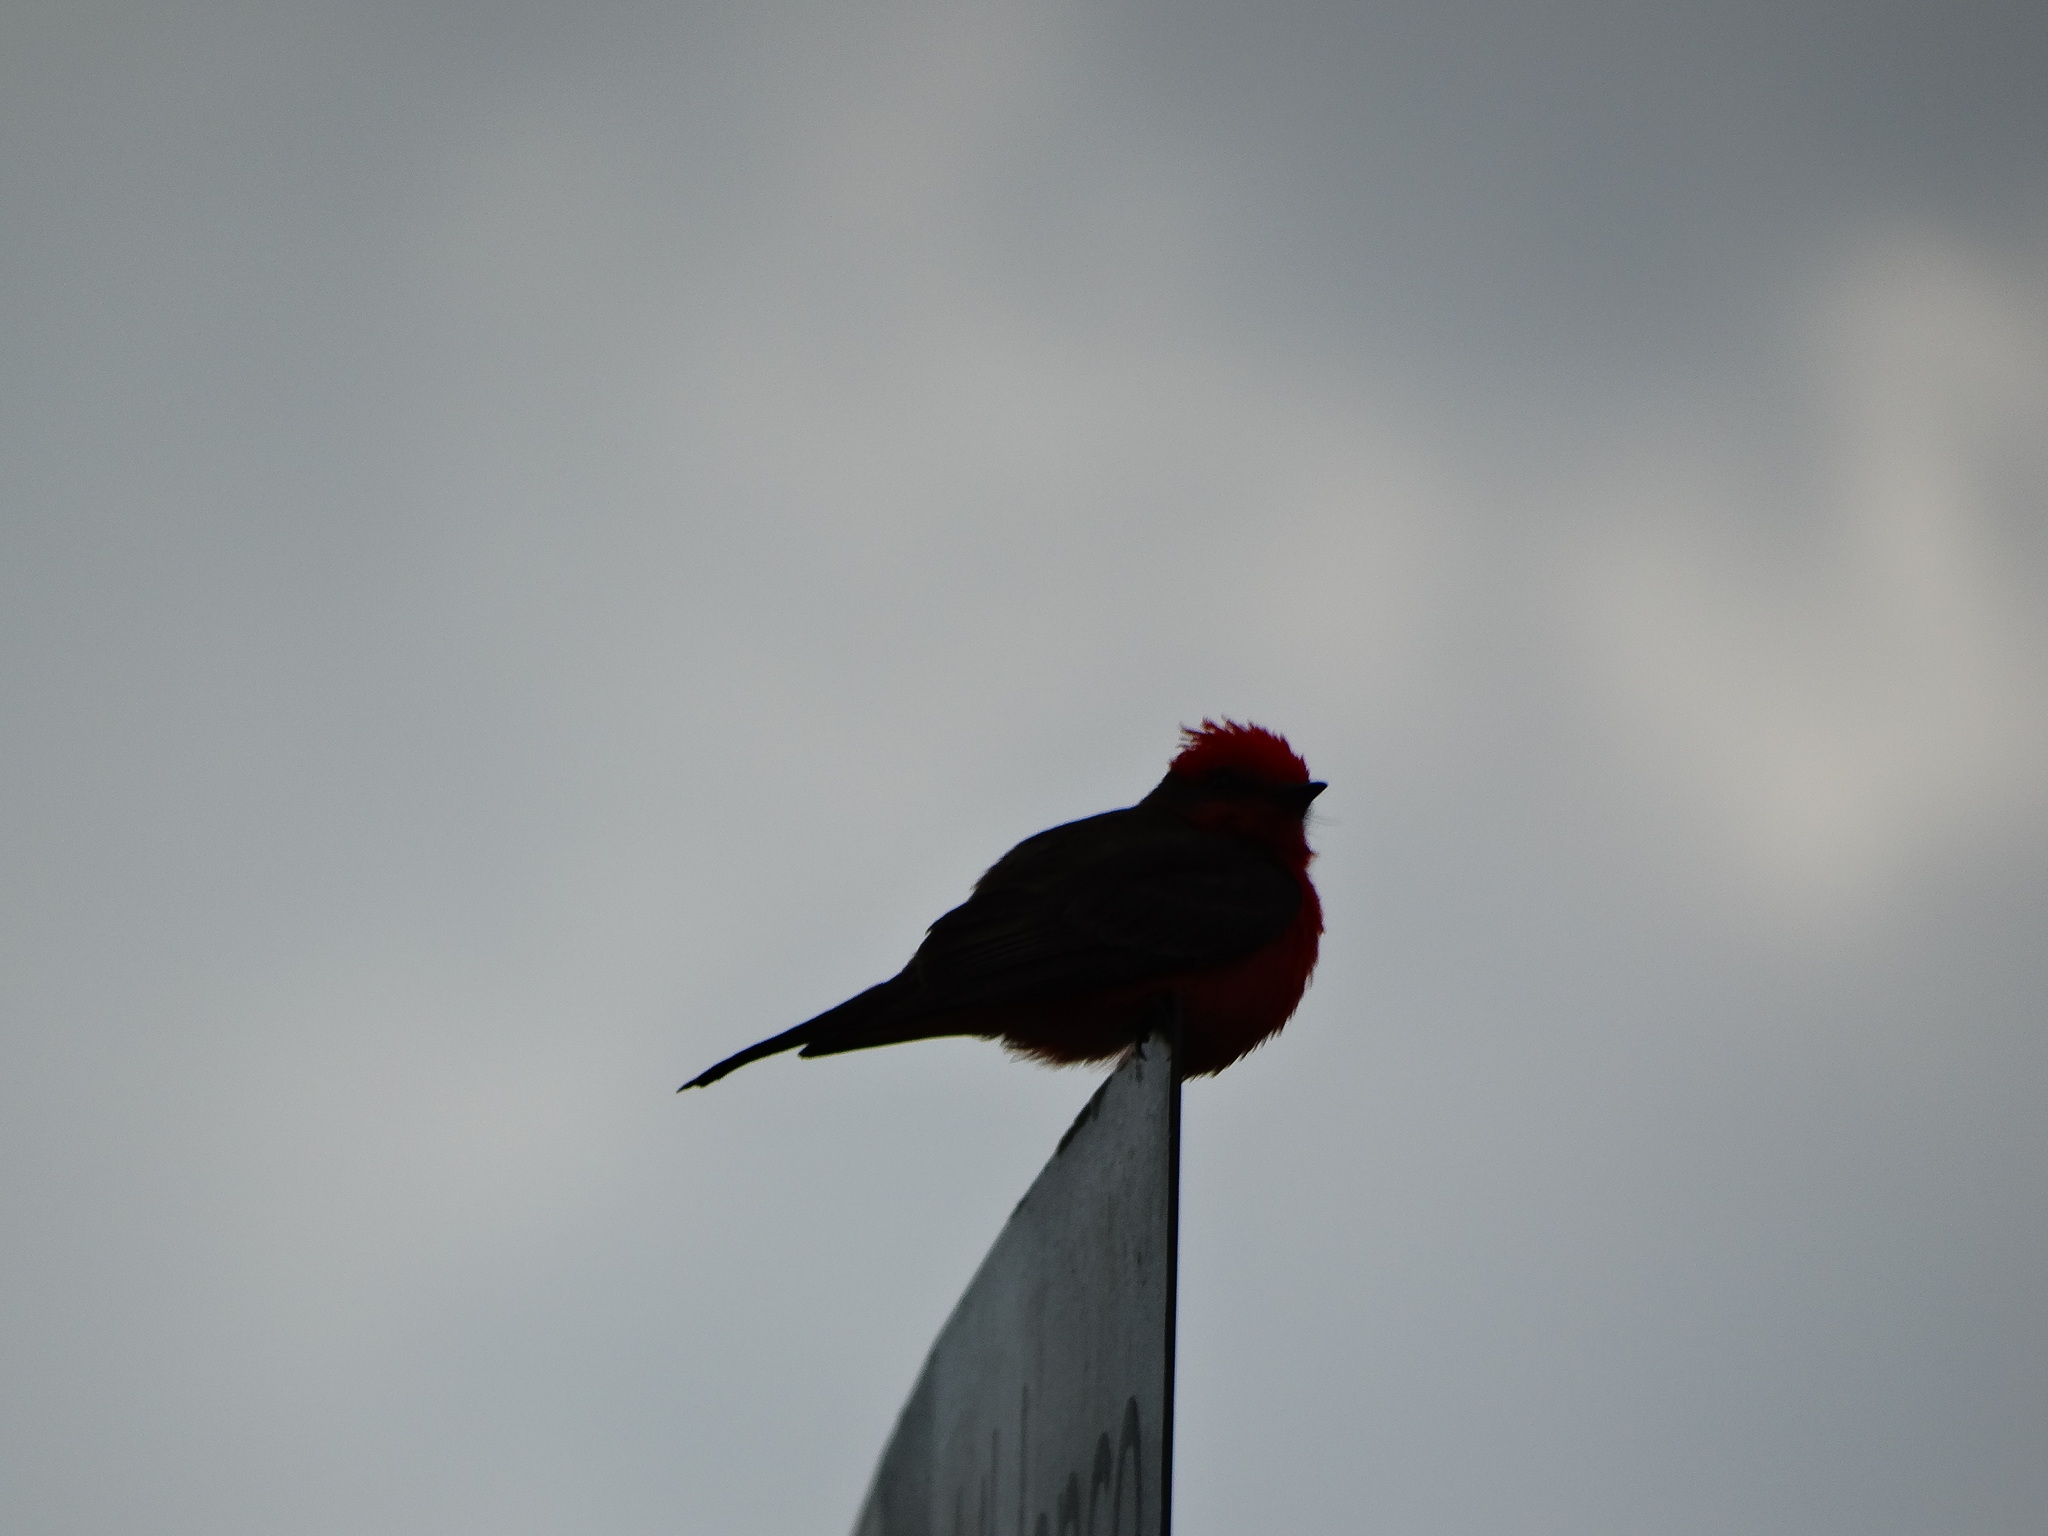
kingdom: Animalia
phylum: Chordata
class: Aves
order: Passeriformes
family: Tyrannidae
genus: Pyrocephalus
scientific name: Pyrocephalus rubinus
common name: Vermilion flycatcher
